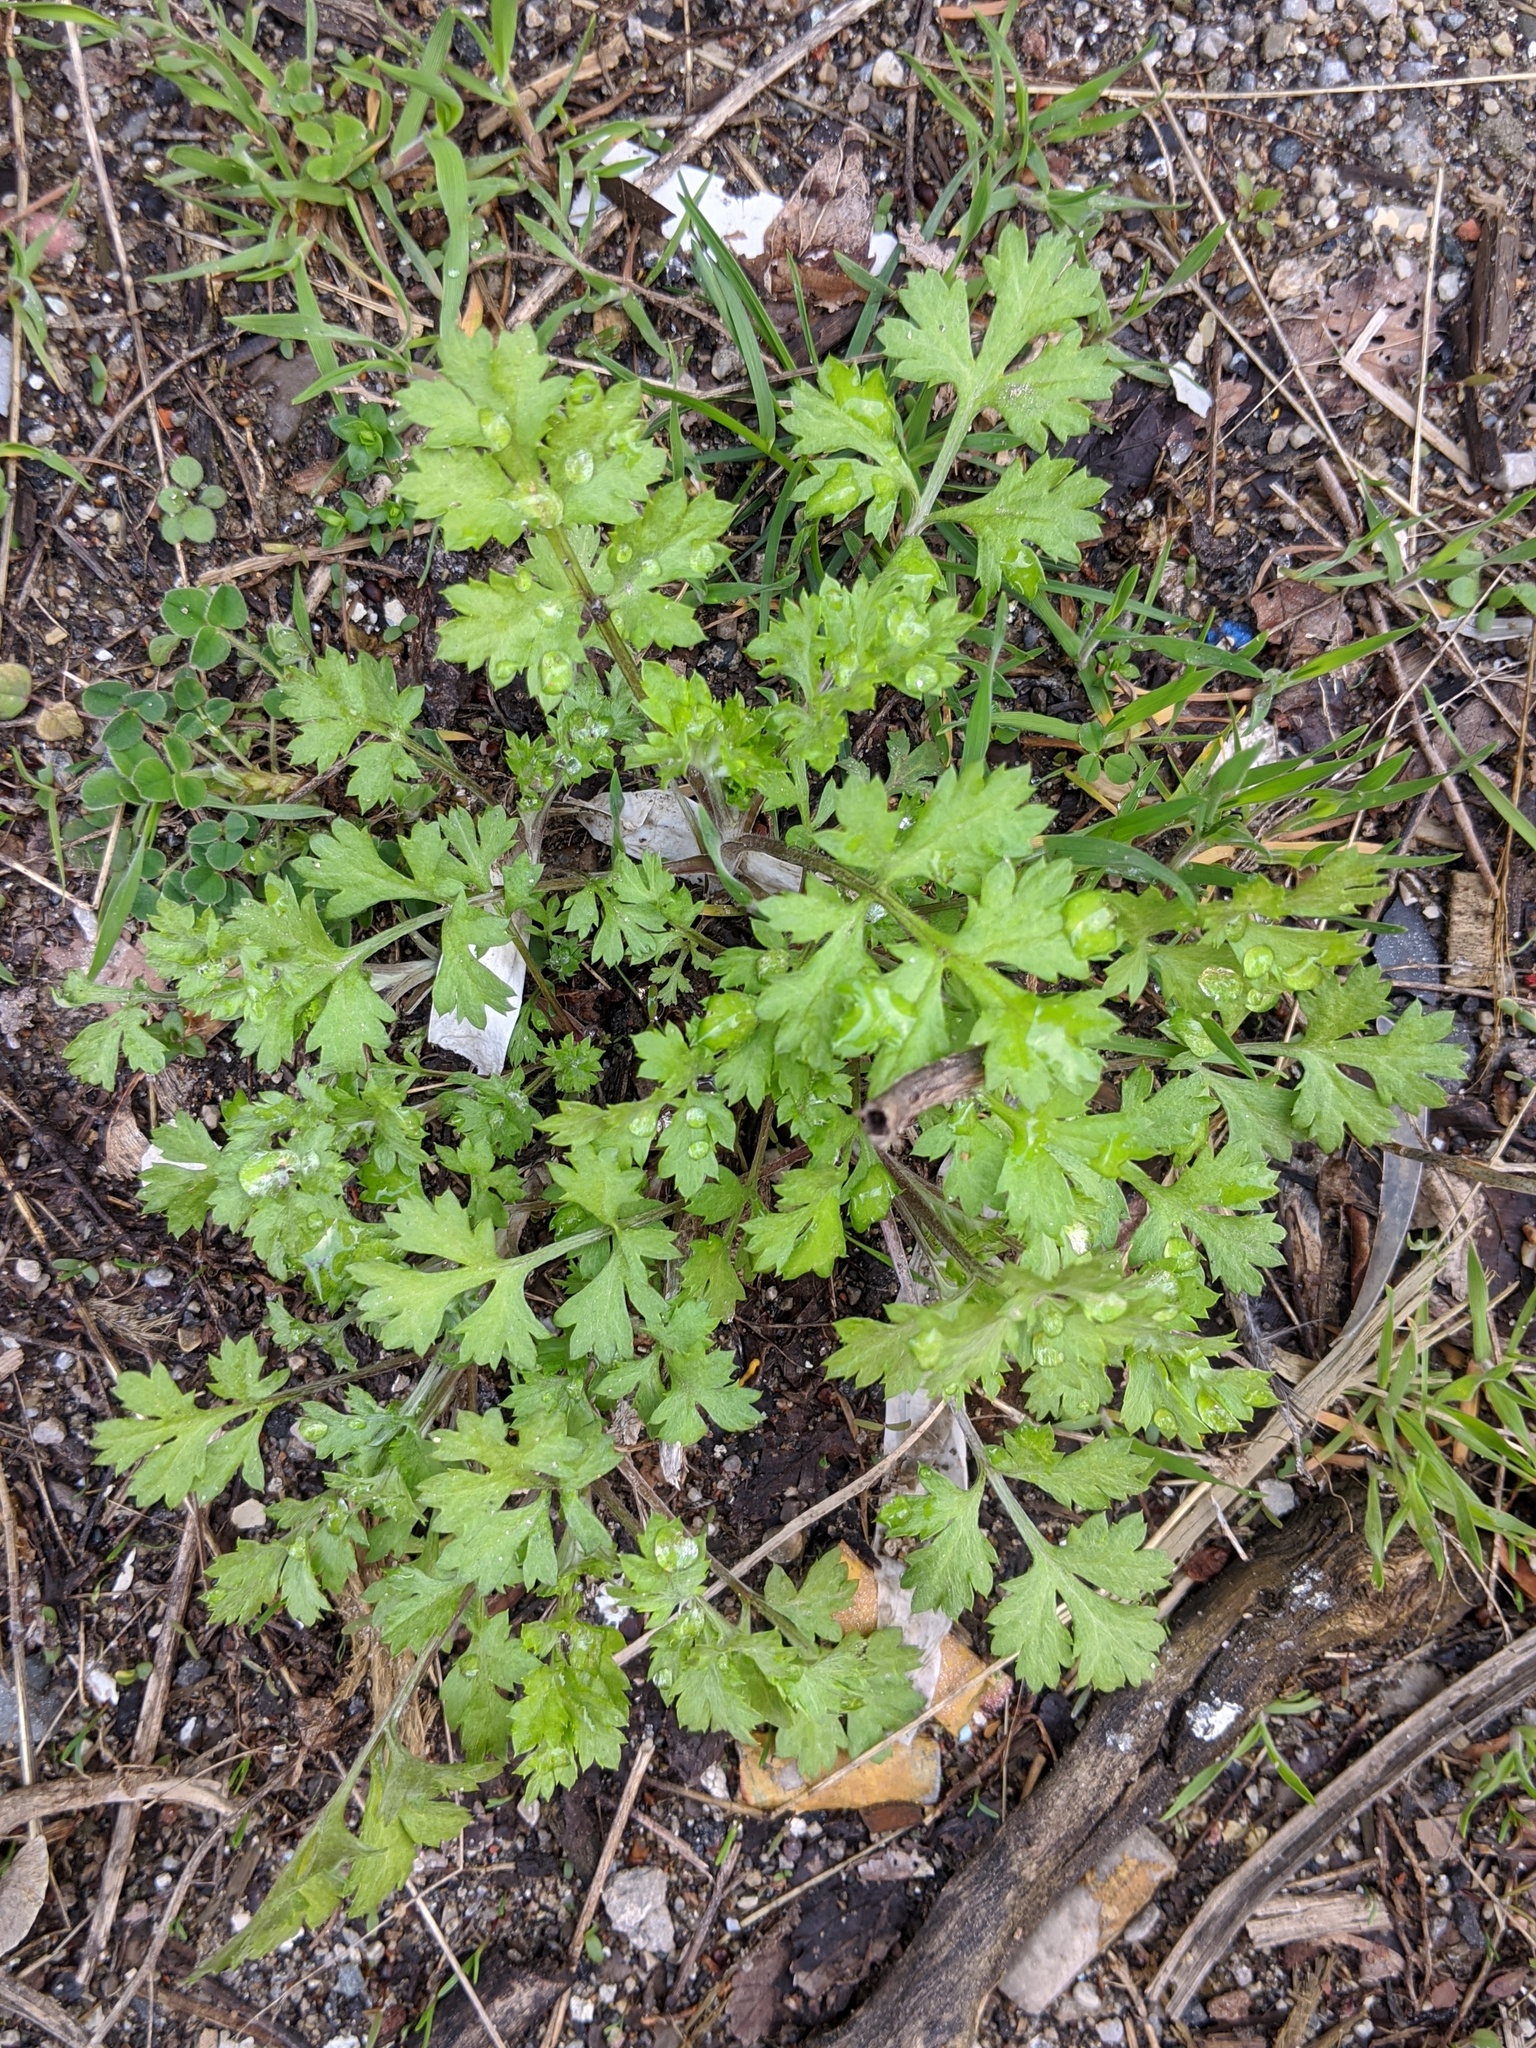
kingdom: Plantae
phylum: Tracheophyta
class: Magnoliopsida
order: Asterales
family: Asteraceae
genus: Artemisia
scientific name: Artemisia vulgaris
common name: Mugwort
